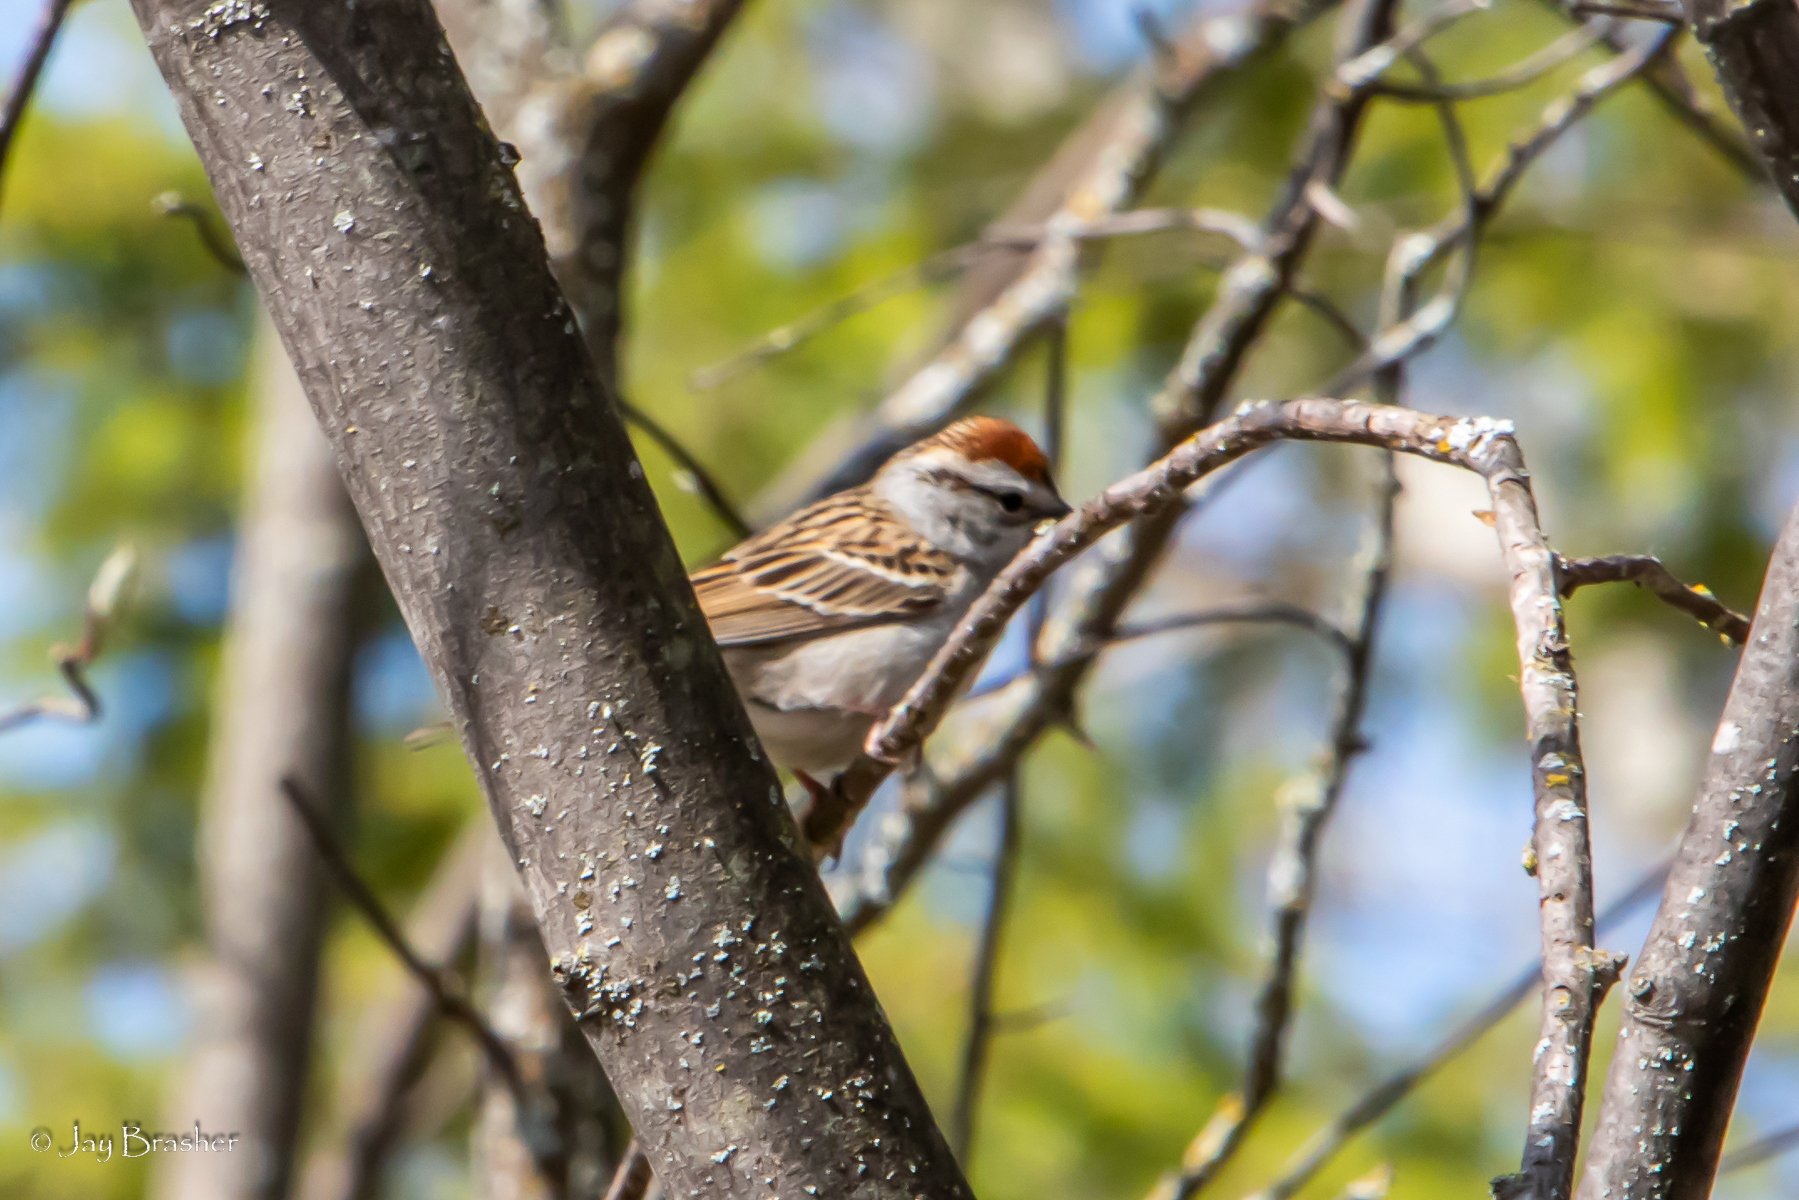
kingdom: Animalia
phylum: Chordata
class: Aves
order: Passeriformes
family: Passerellidae
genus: Spizella
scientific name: Spizella passerina
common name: Chipping sparrow
